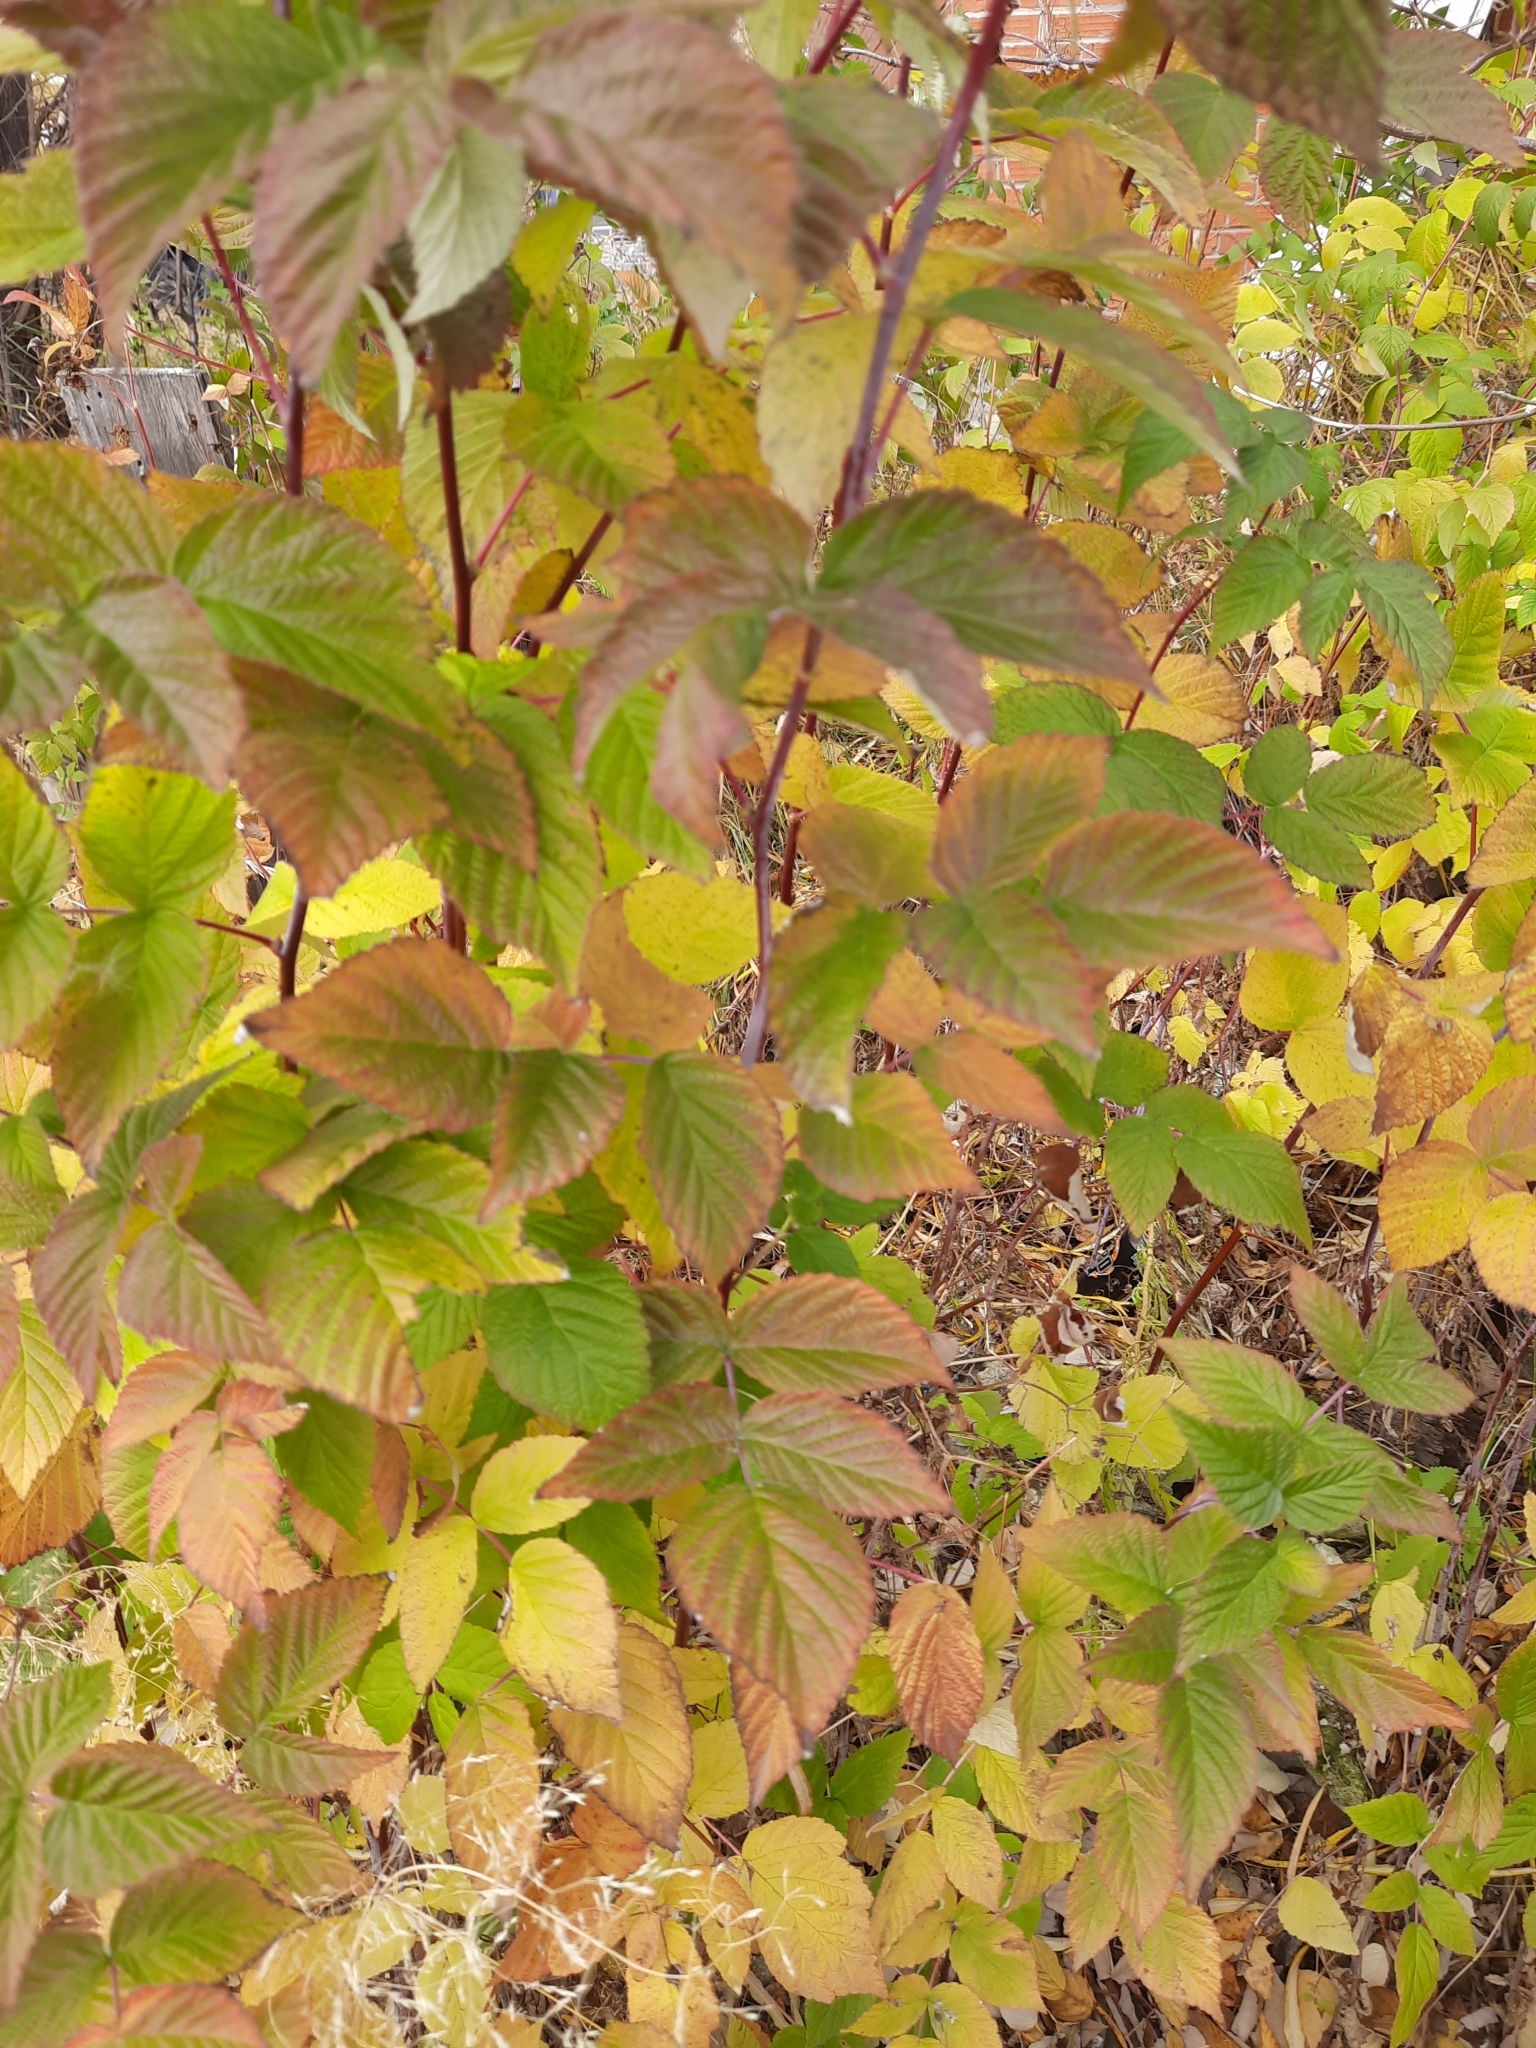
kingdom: Plantae
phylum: Tracheophyta
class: Magnoliopsida
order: Rosales
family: Rosaceae
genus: Rubus
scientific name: Rubus idaeus
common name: Raspberry
